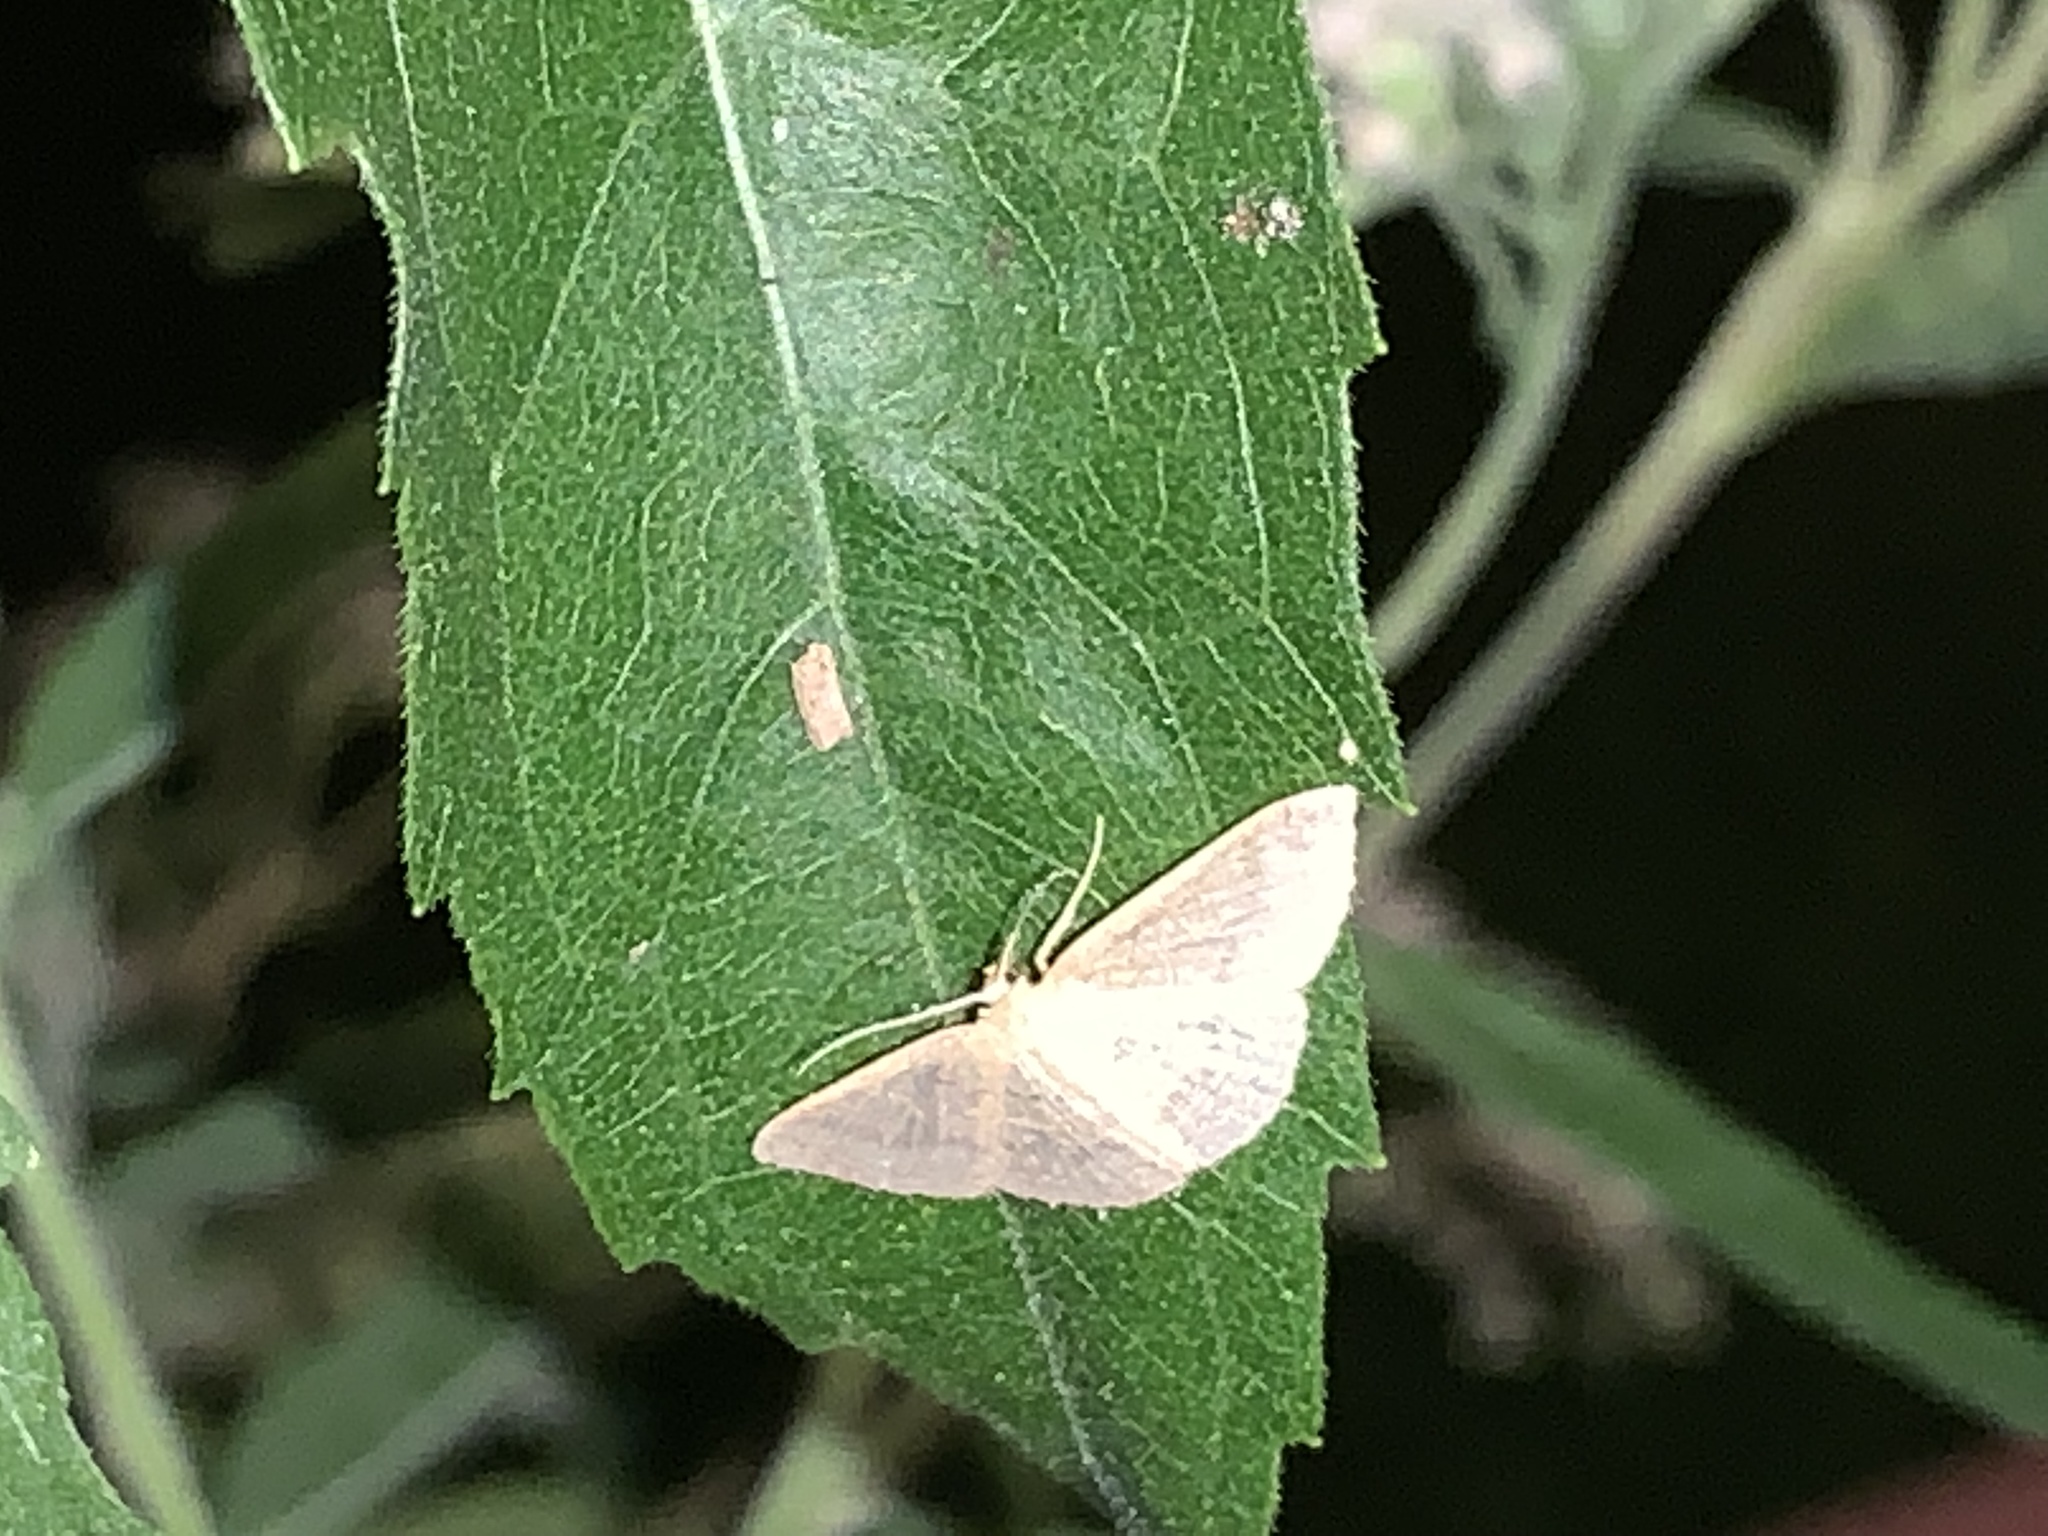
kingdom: Animalia
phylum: Arthropoda
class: Insecta
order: Lepidoptera
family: Geometridae
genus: Pleuroprucha
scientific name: Pleuroprucha insulsaria
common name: Common tan wave
